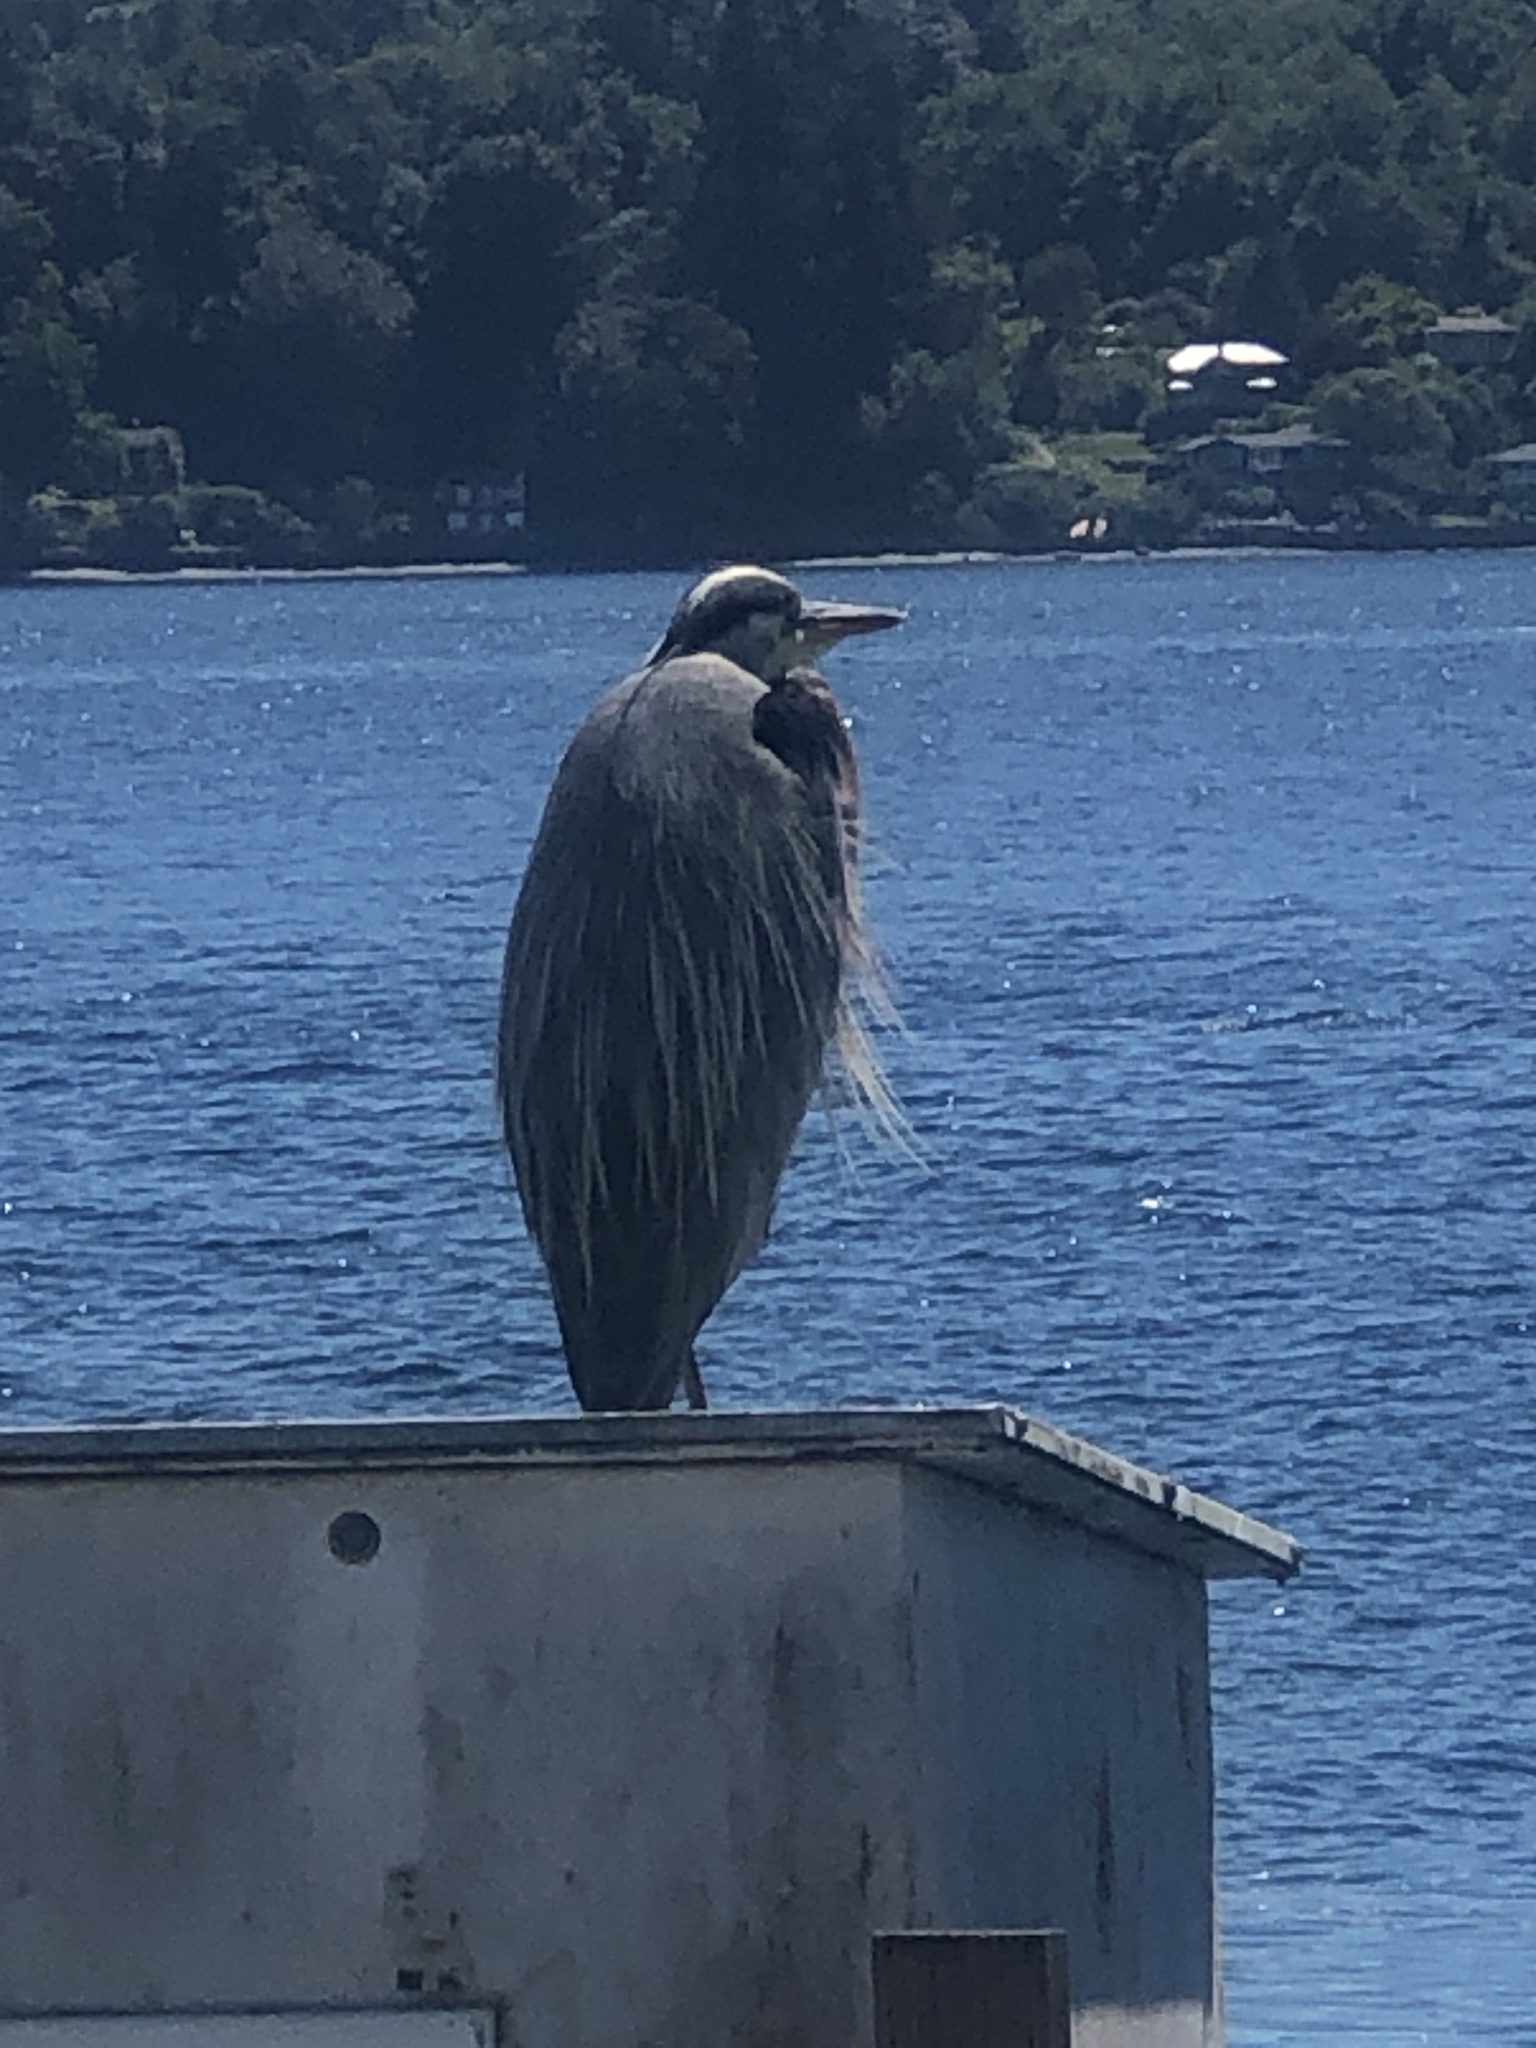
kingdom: Animalia
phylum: Chordata
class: Aves
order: Pelecaniformes
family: Ardeidae
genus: Ardea
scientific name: Ardea herodias
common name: Great blue heron
